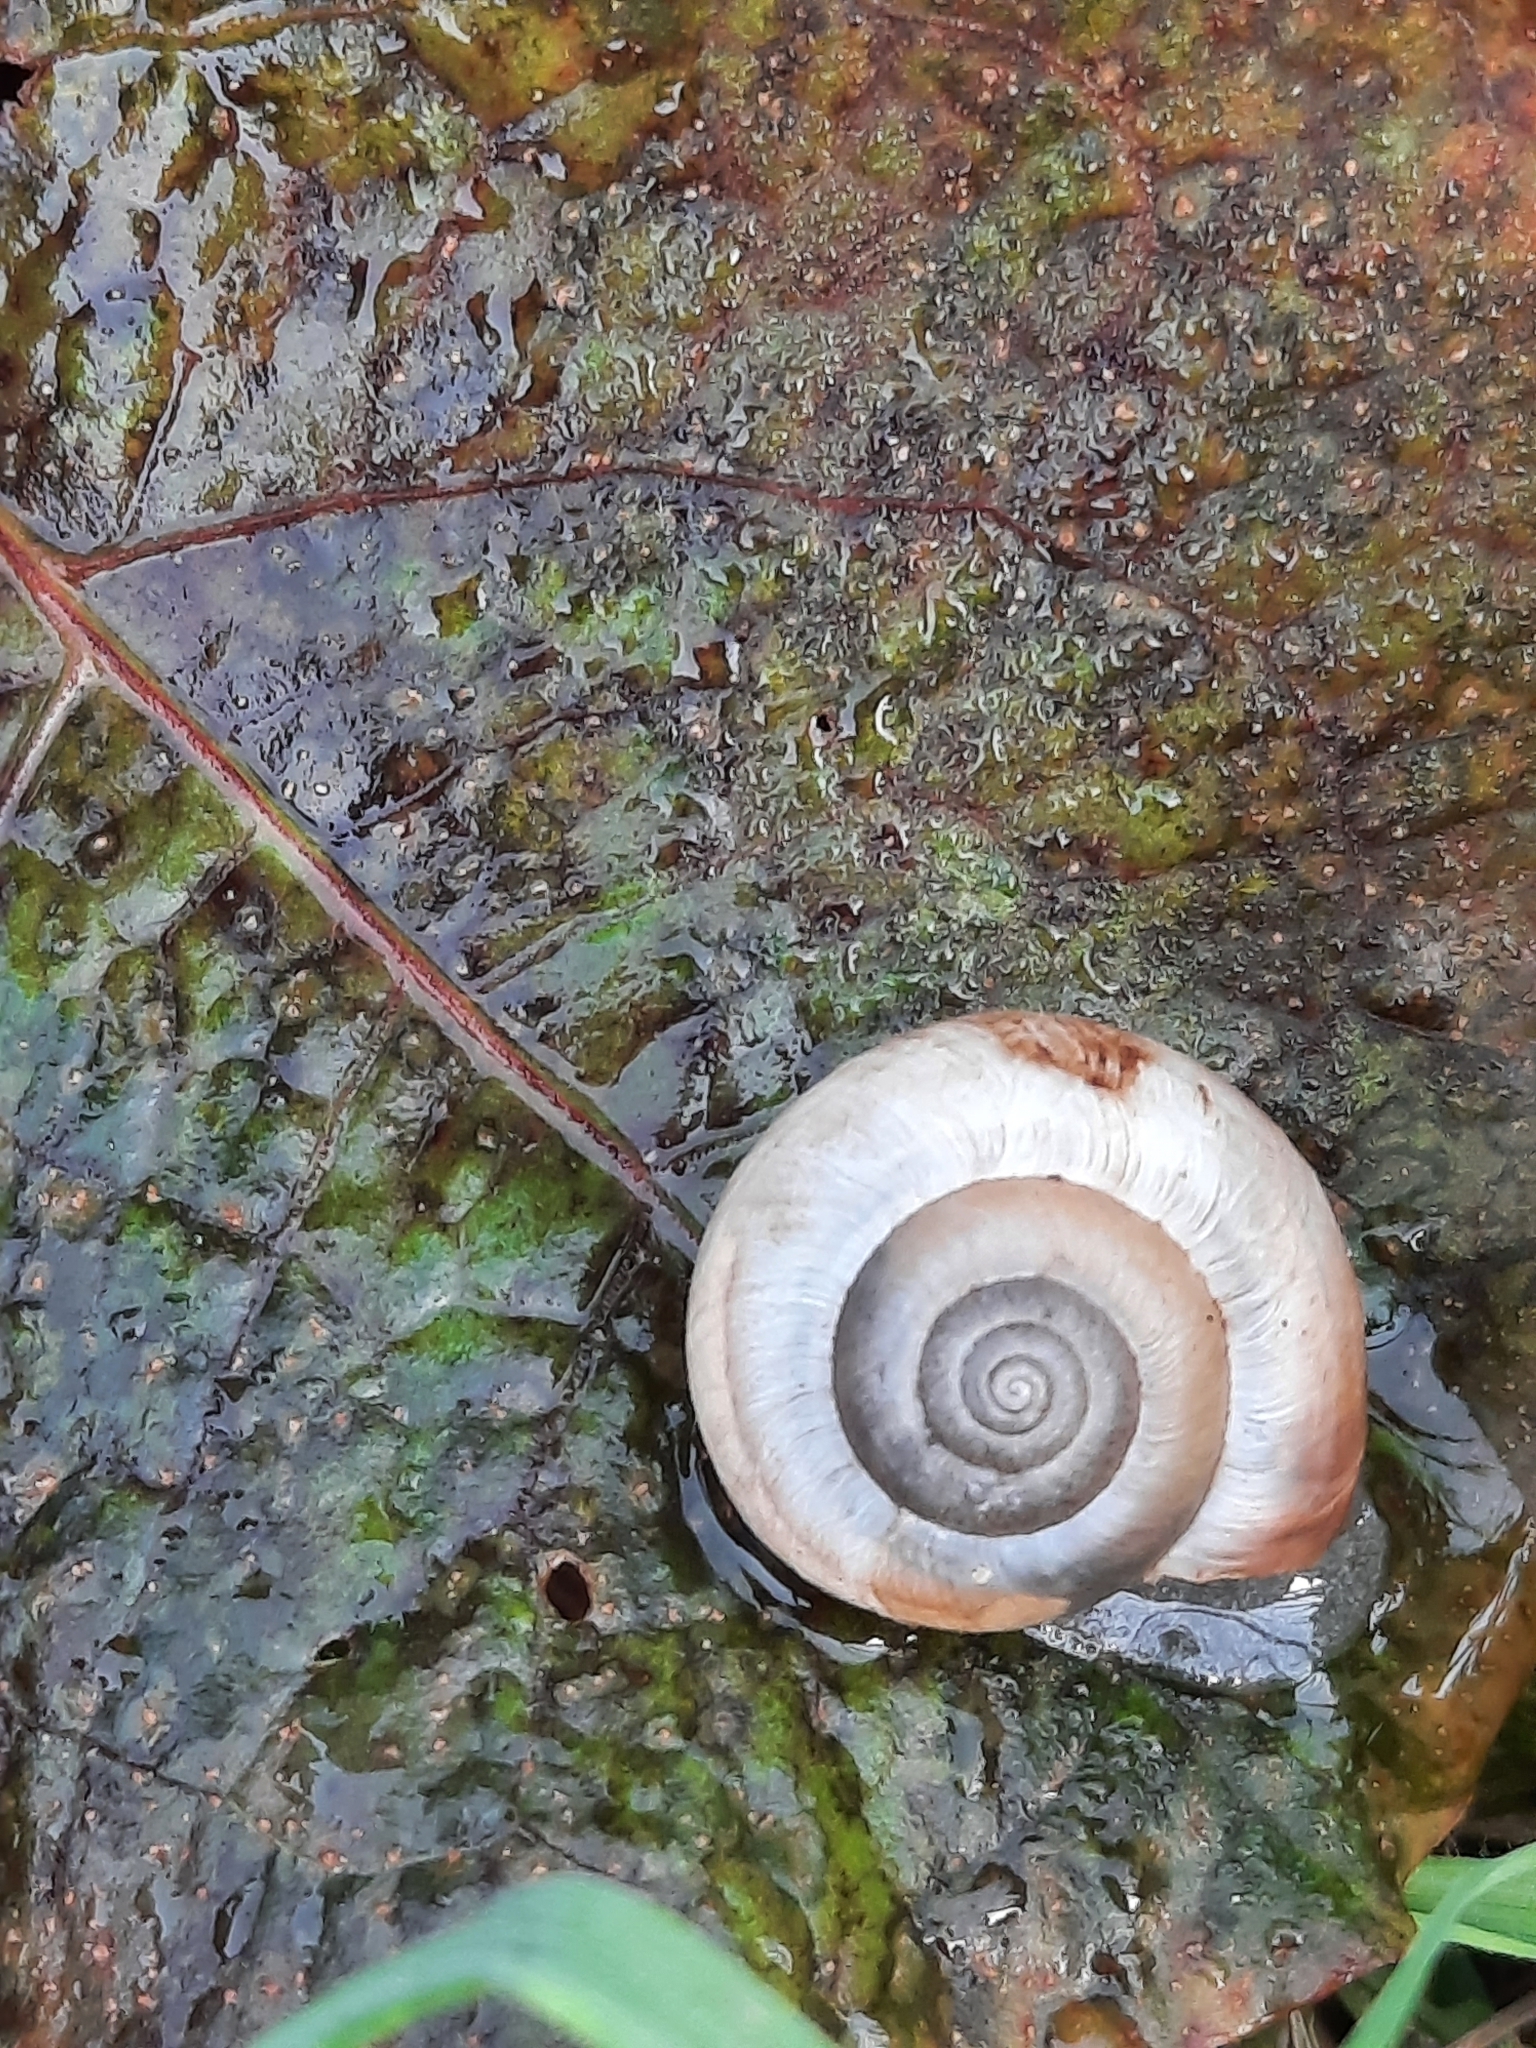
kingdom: Animalia
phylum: Mollusca
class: Gastropoda
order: Stylommatophora
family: Hygromiidae
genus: Monacha
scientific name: Monacha cantiana
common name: Kentish snail
